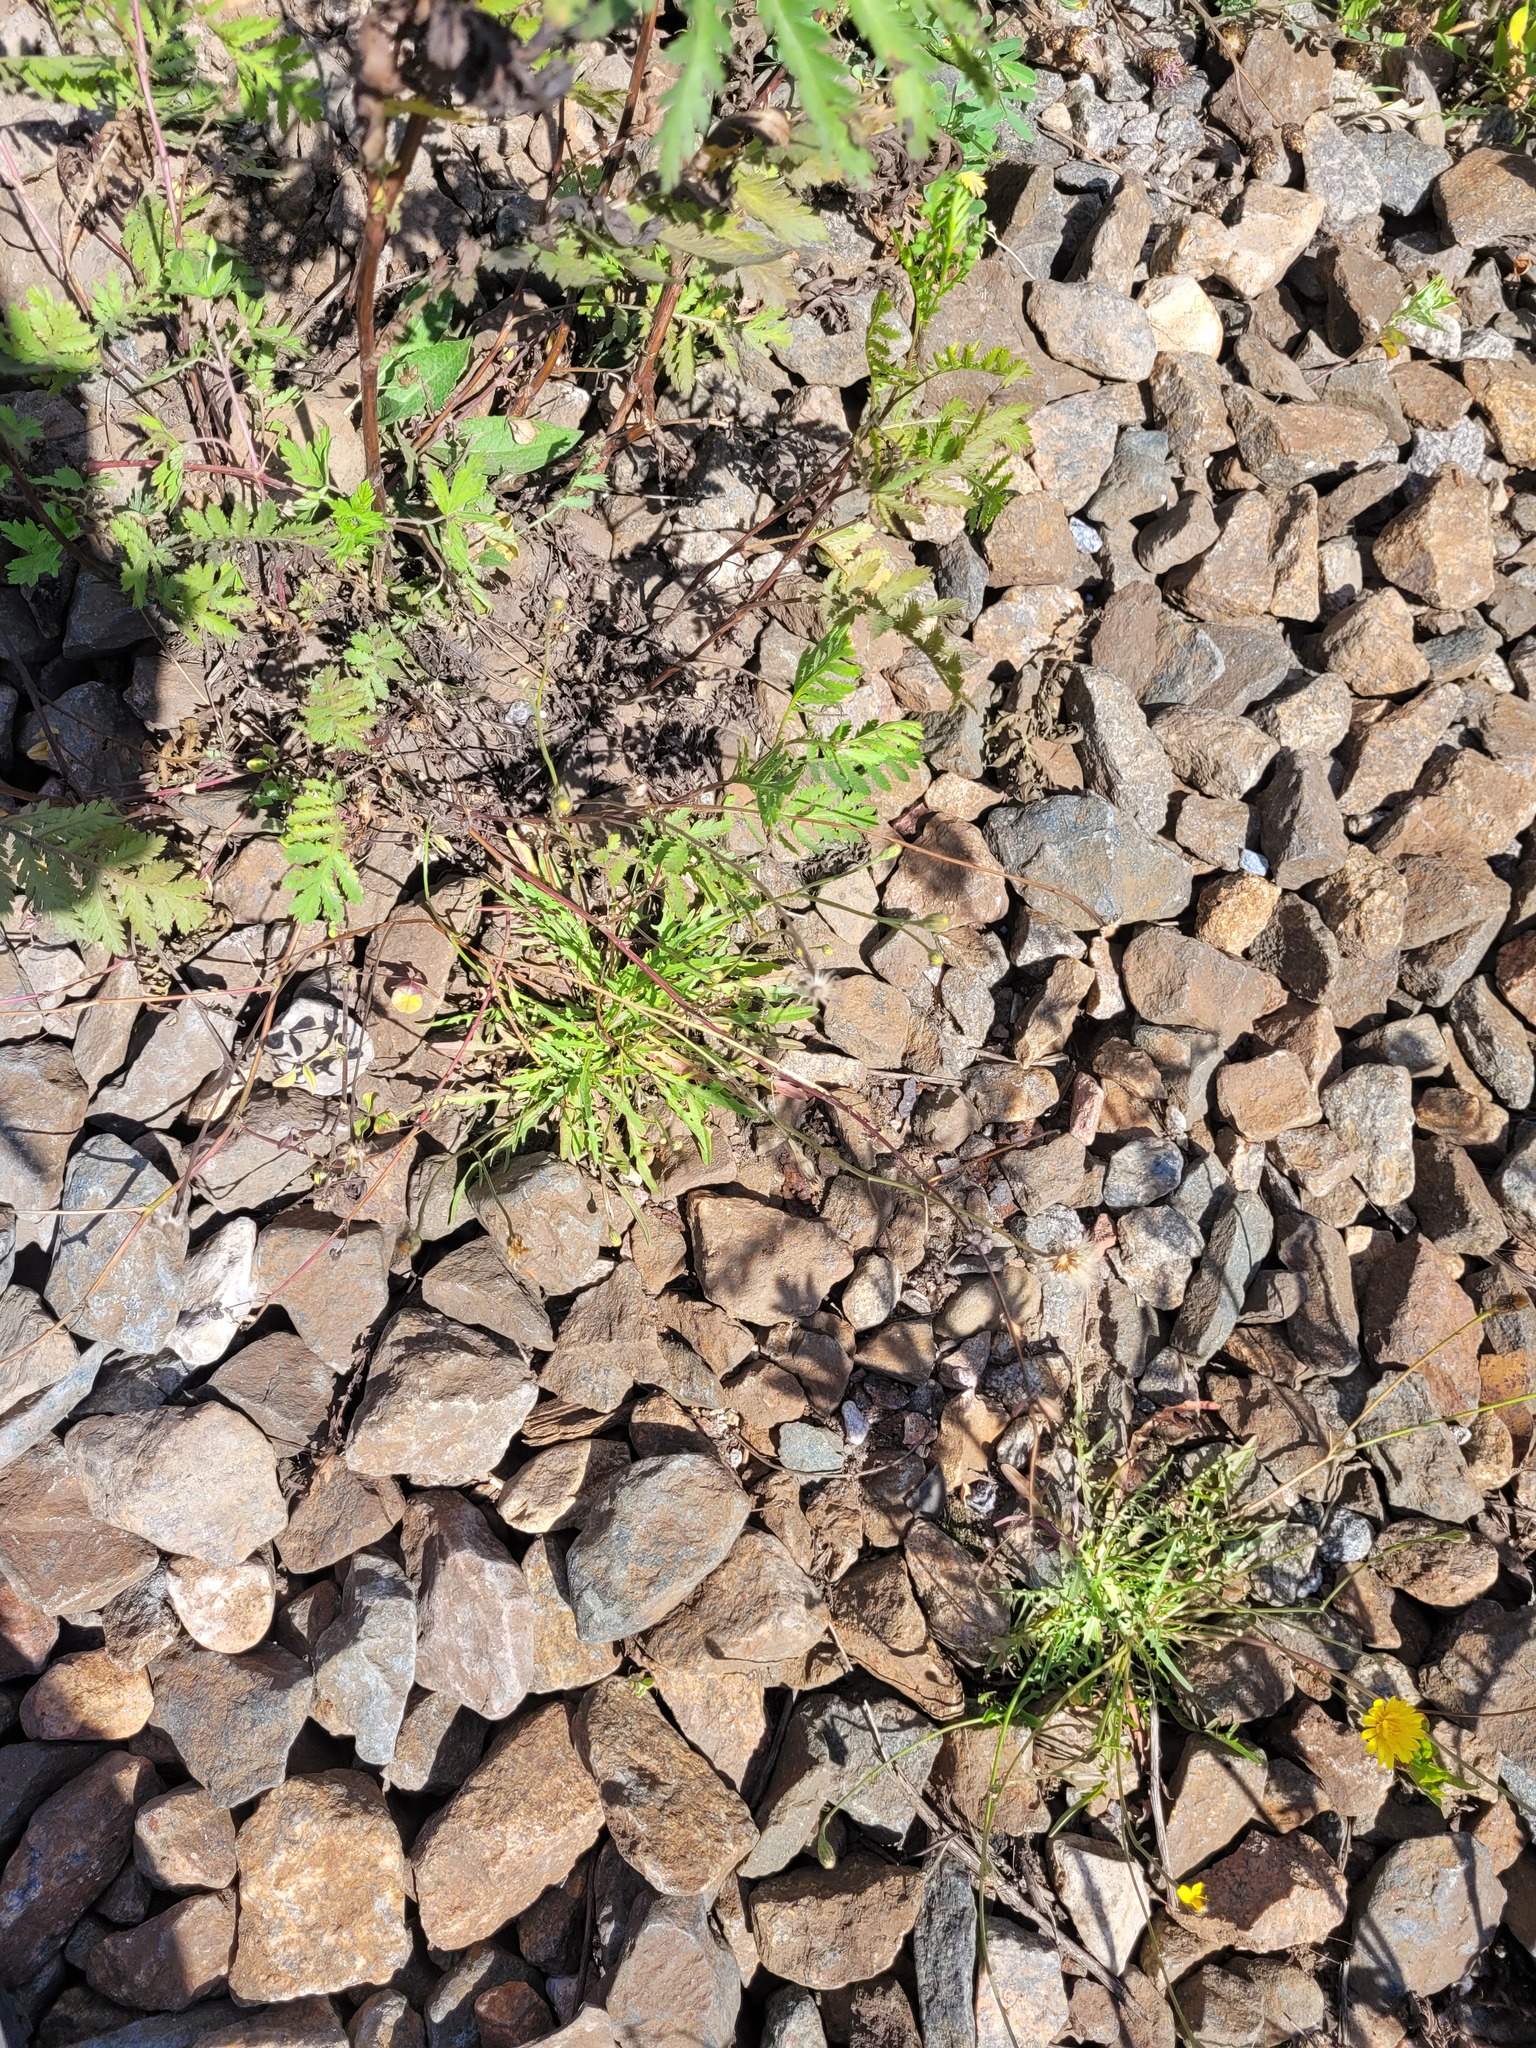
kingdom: Plantae
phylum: Tracheophyta
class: Magnoliopsida
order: Asterales
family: Asteraceae
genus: Scorzoneroides
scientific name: Scorzoneroides autumnalis
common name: Autumn hawkbit
